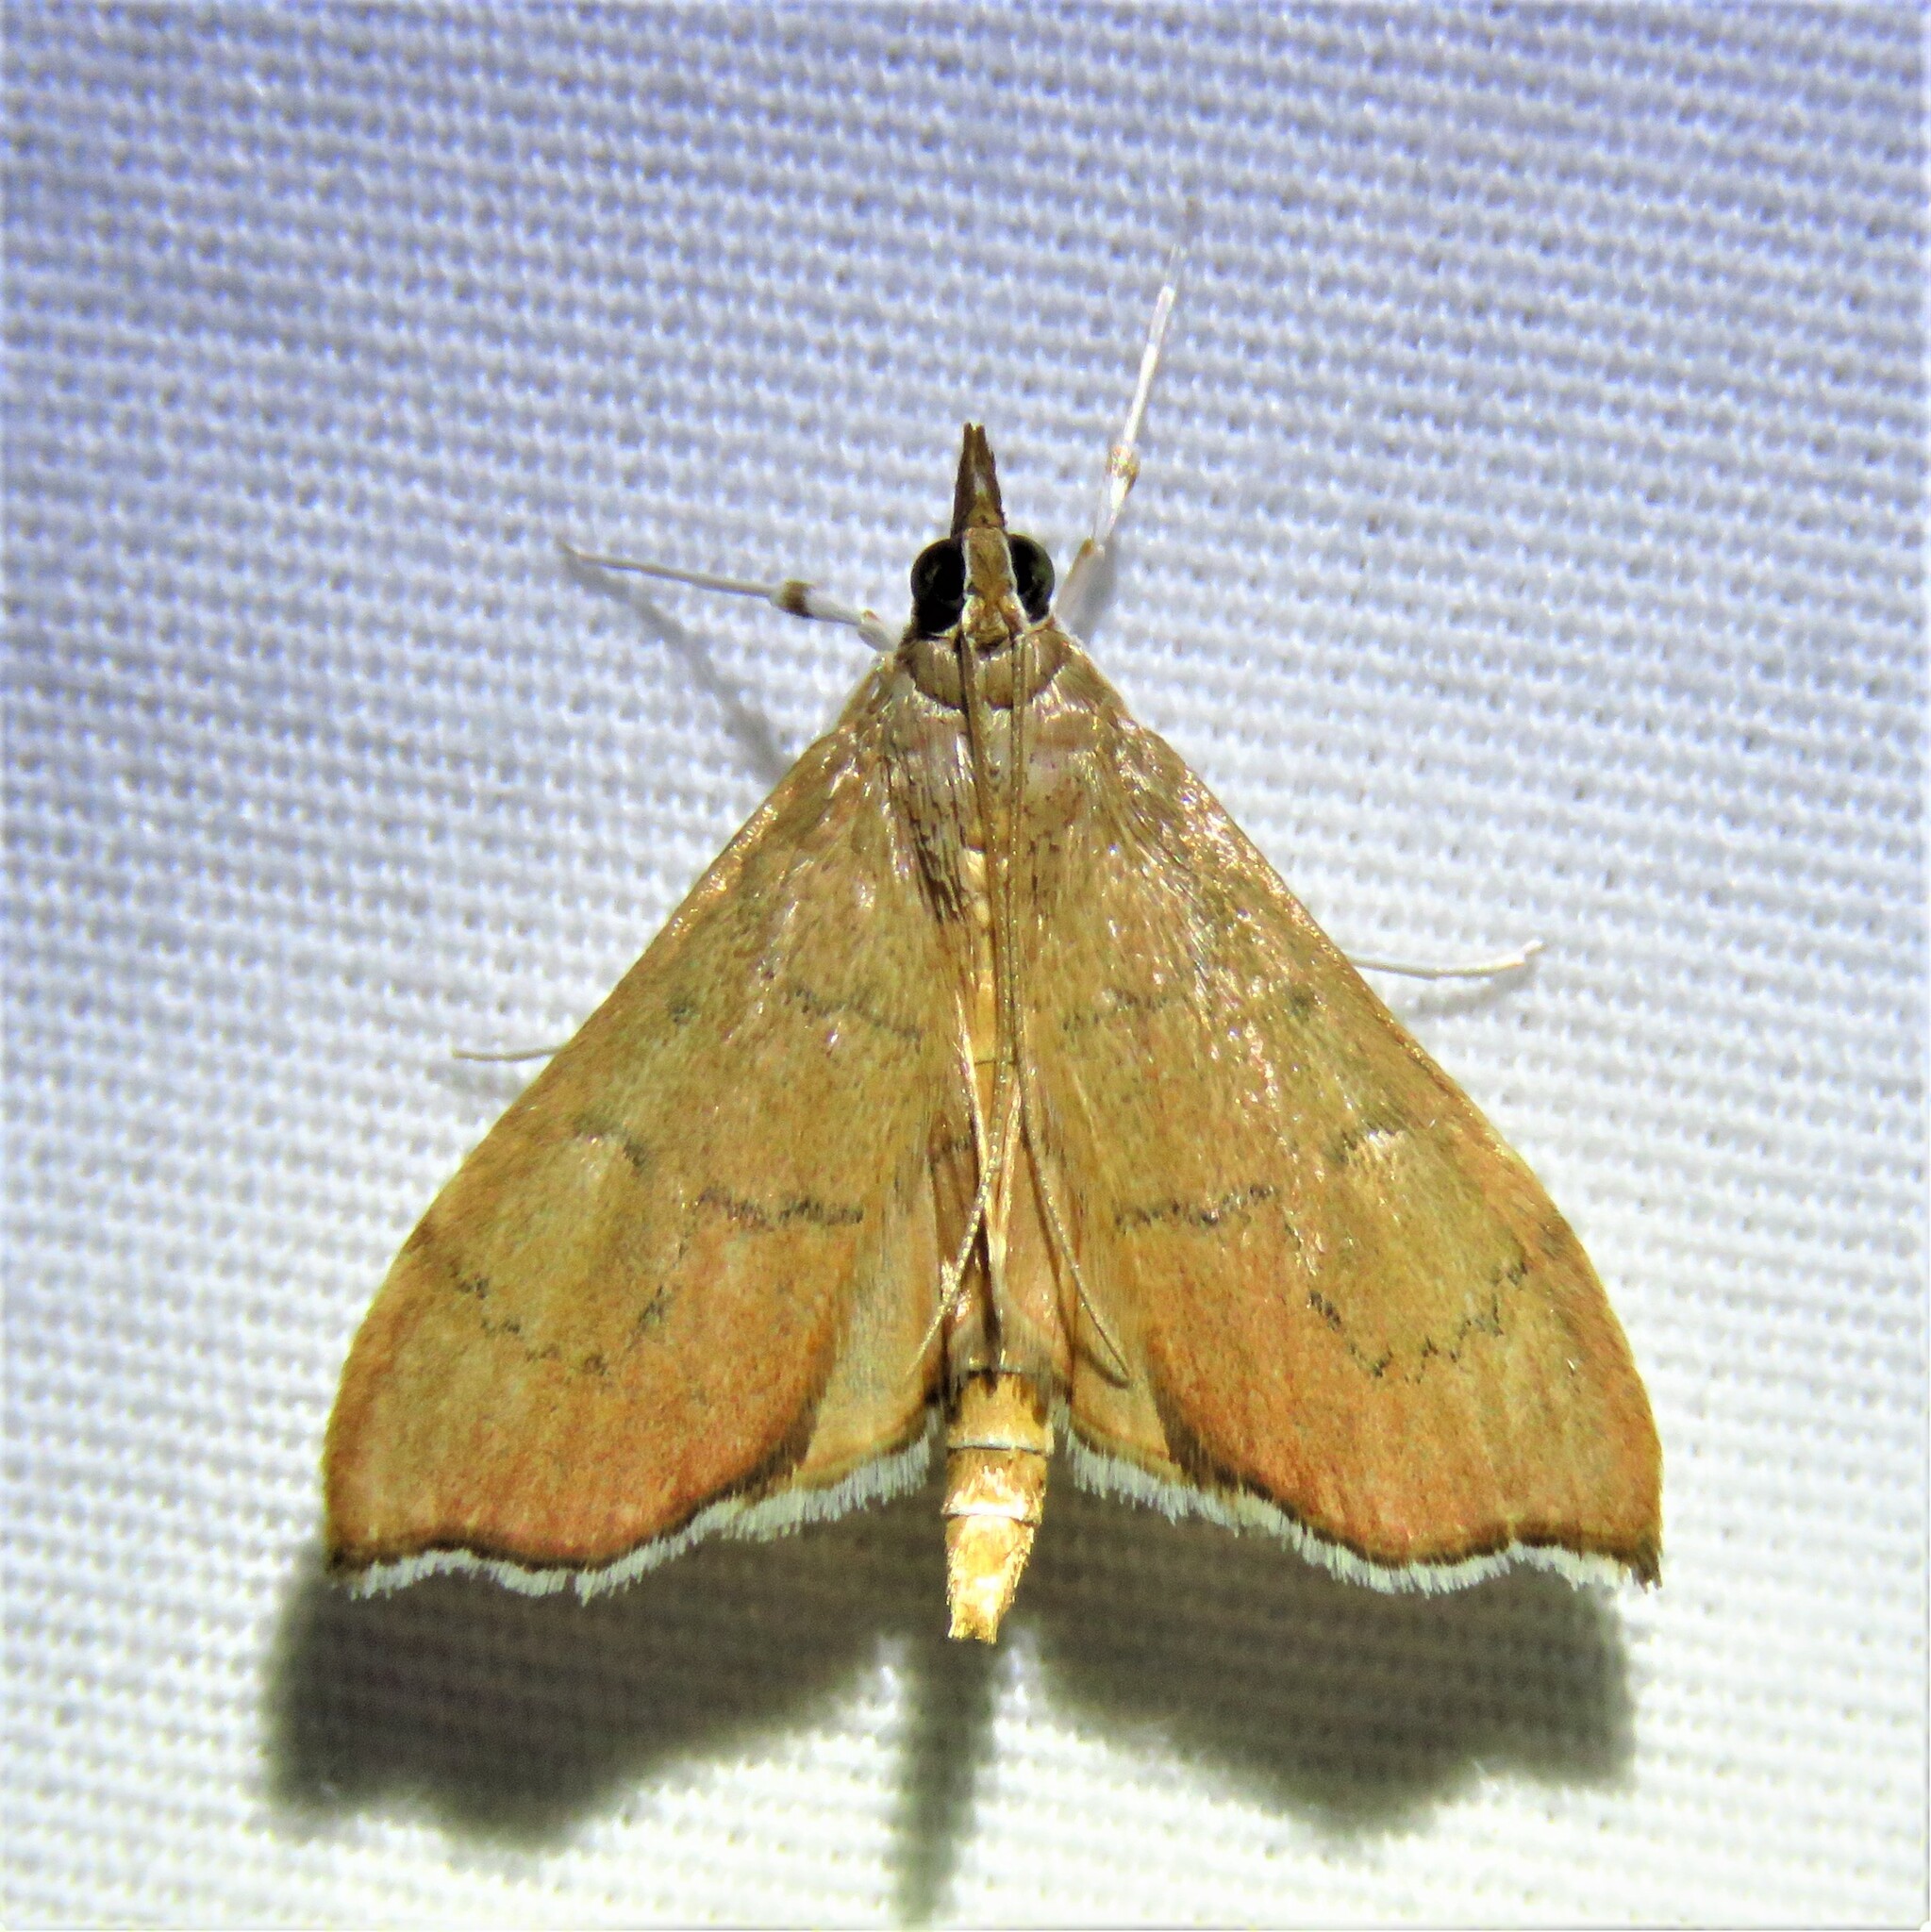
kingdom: Animalia
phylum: Arthropoda
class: Insecta
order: Lepidoptera
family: Crambidae
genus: Sericoplaga
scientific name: Sericoplaga externalis
